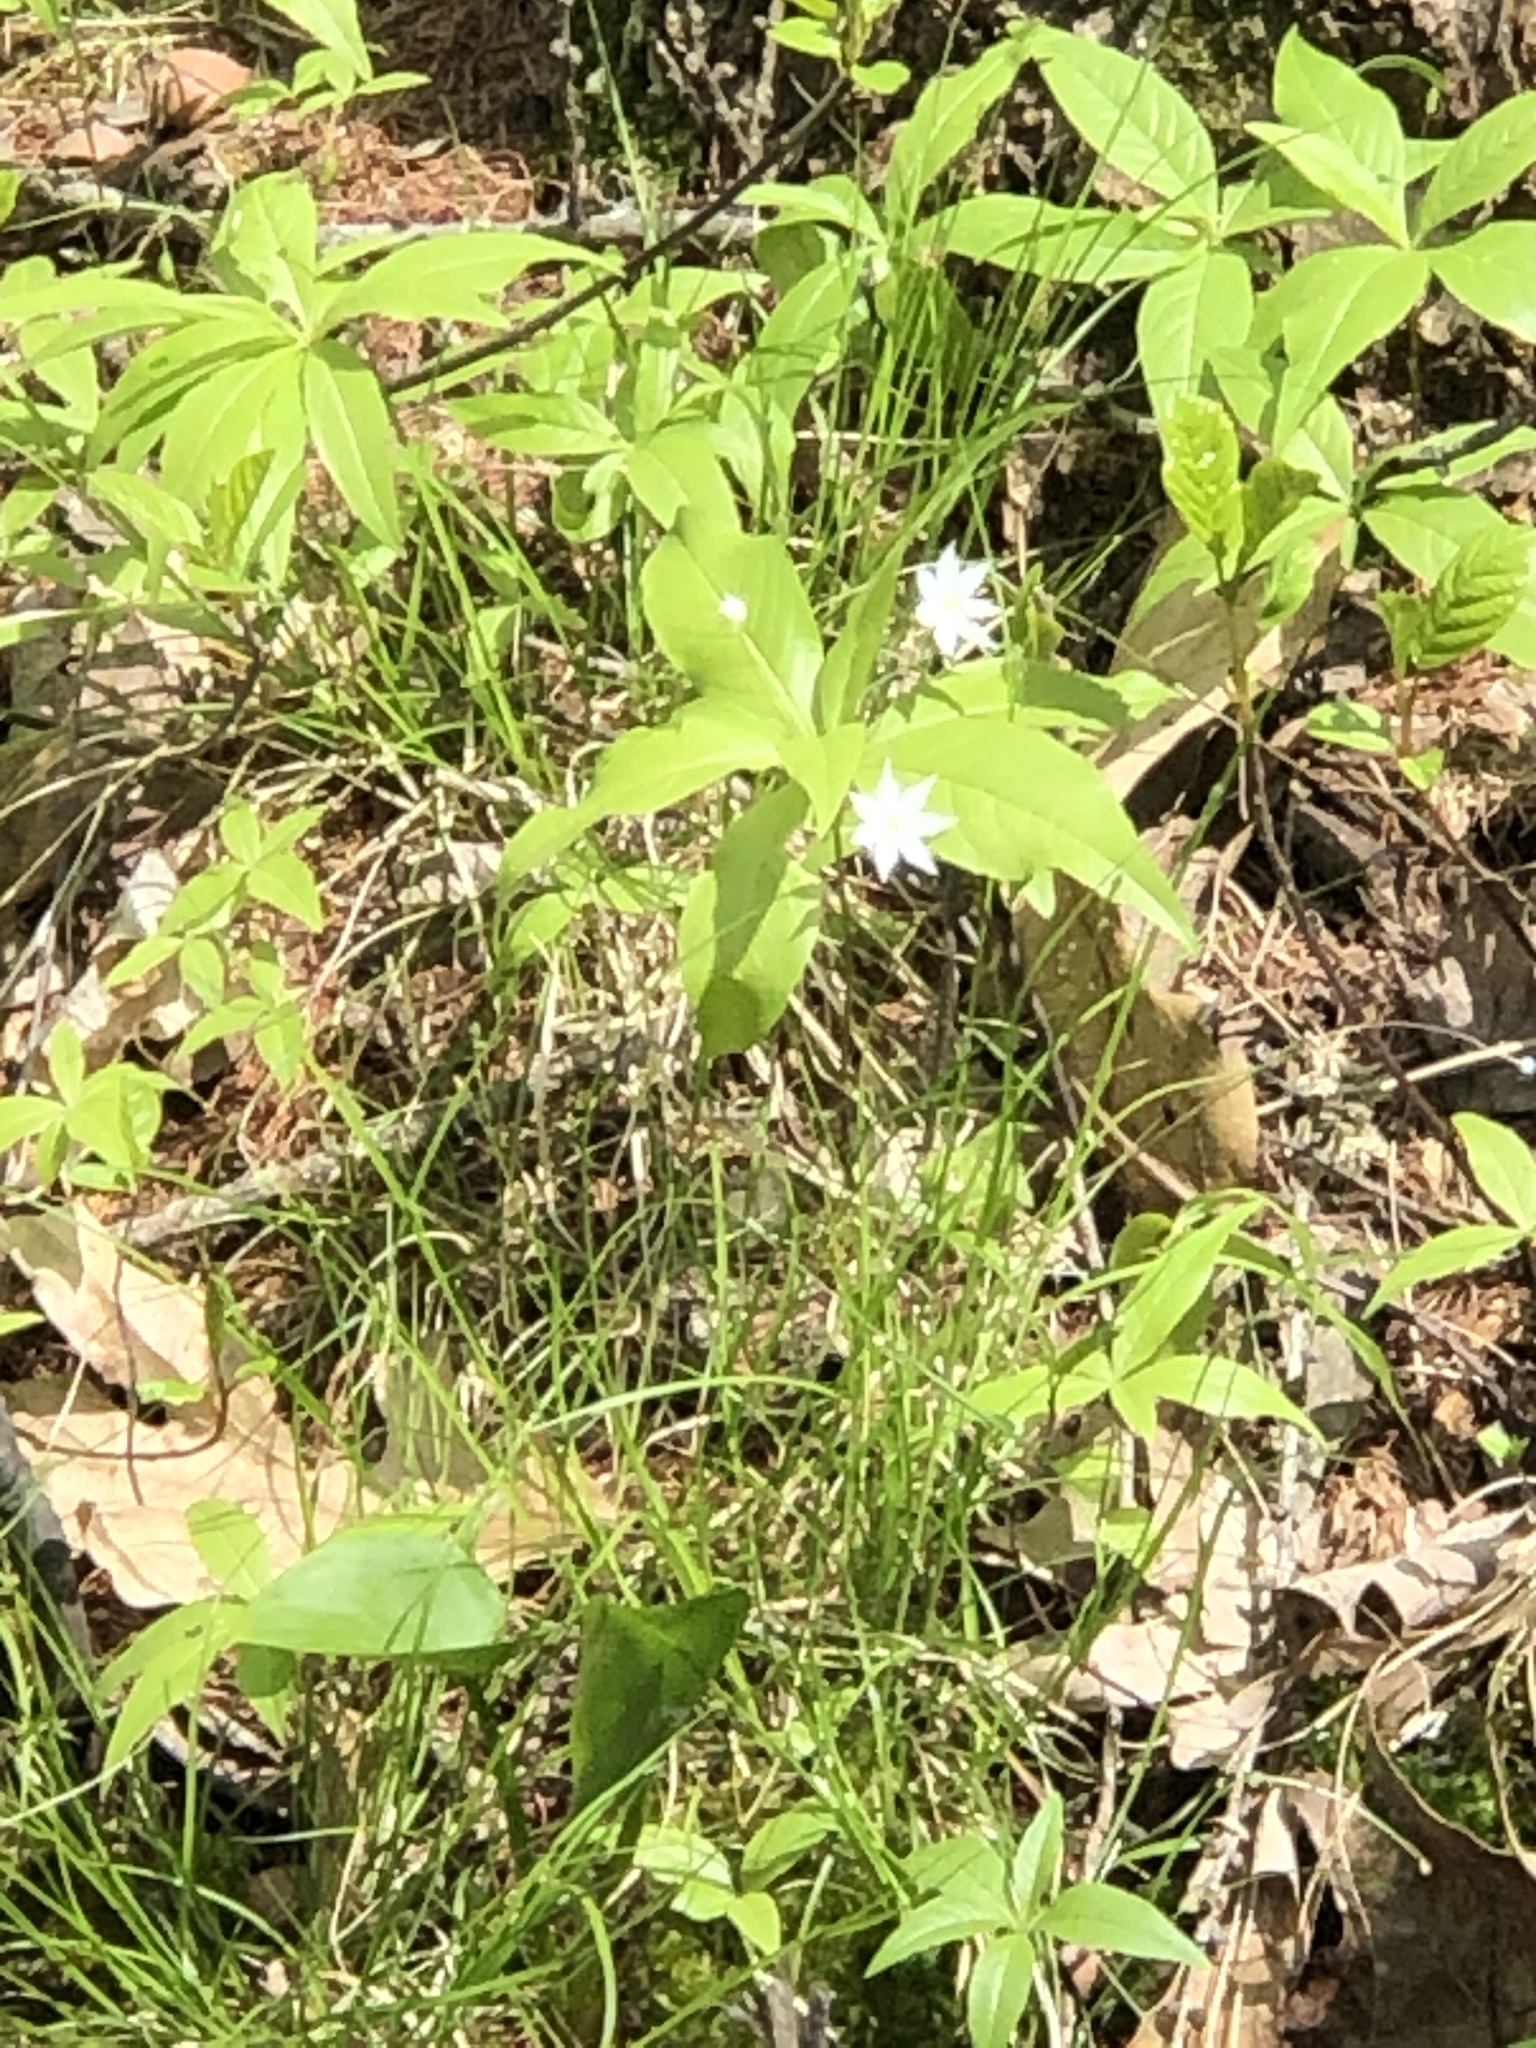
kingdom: Plantae
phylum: Tracheophyta
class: Magnoliopsida
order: Ericales
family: Primulaceae
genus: Lysimachia
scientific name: Lysimachia borealis
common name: American starflower
